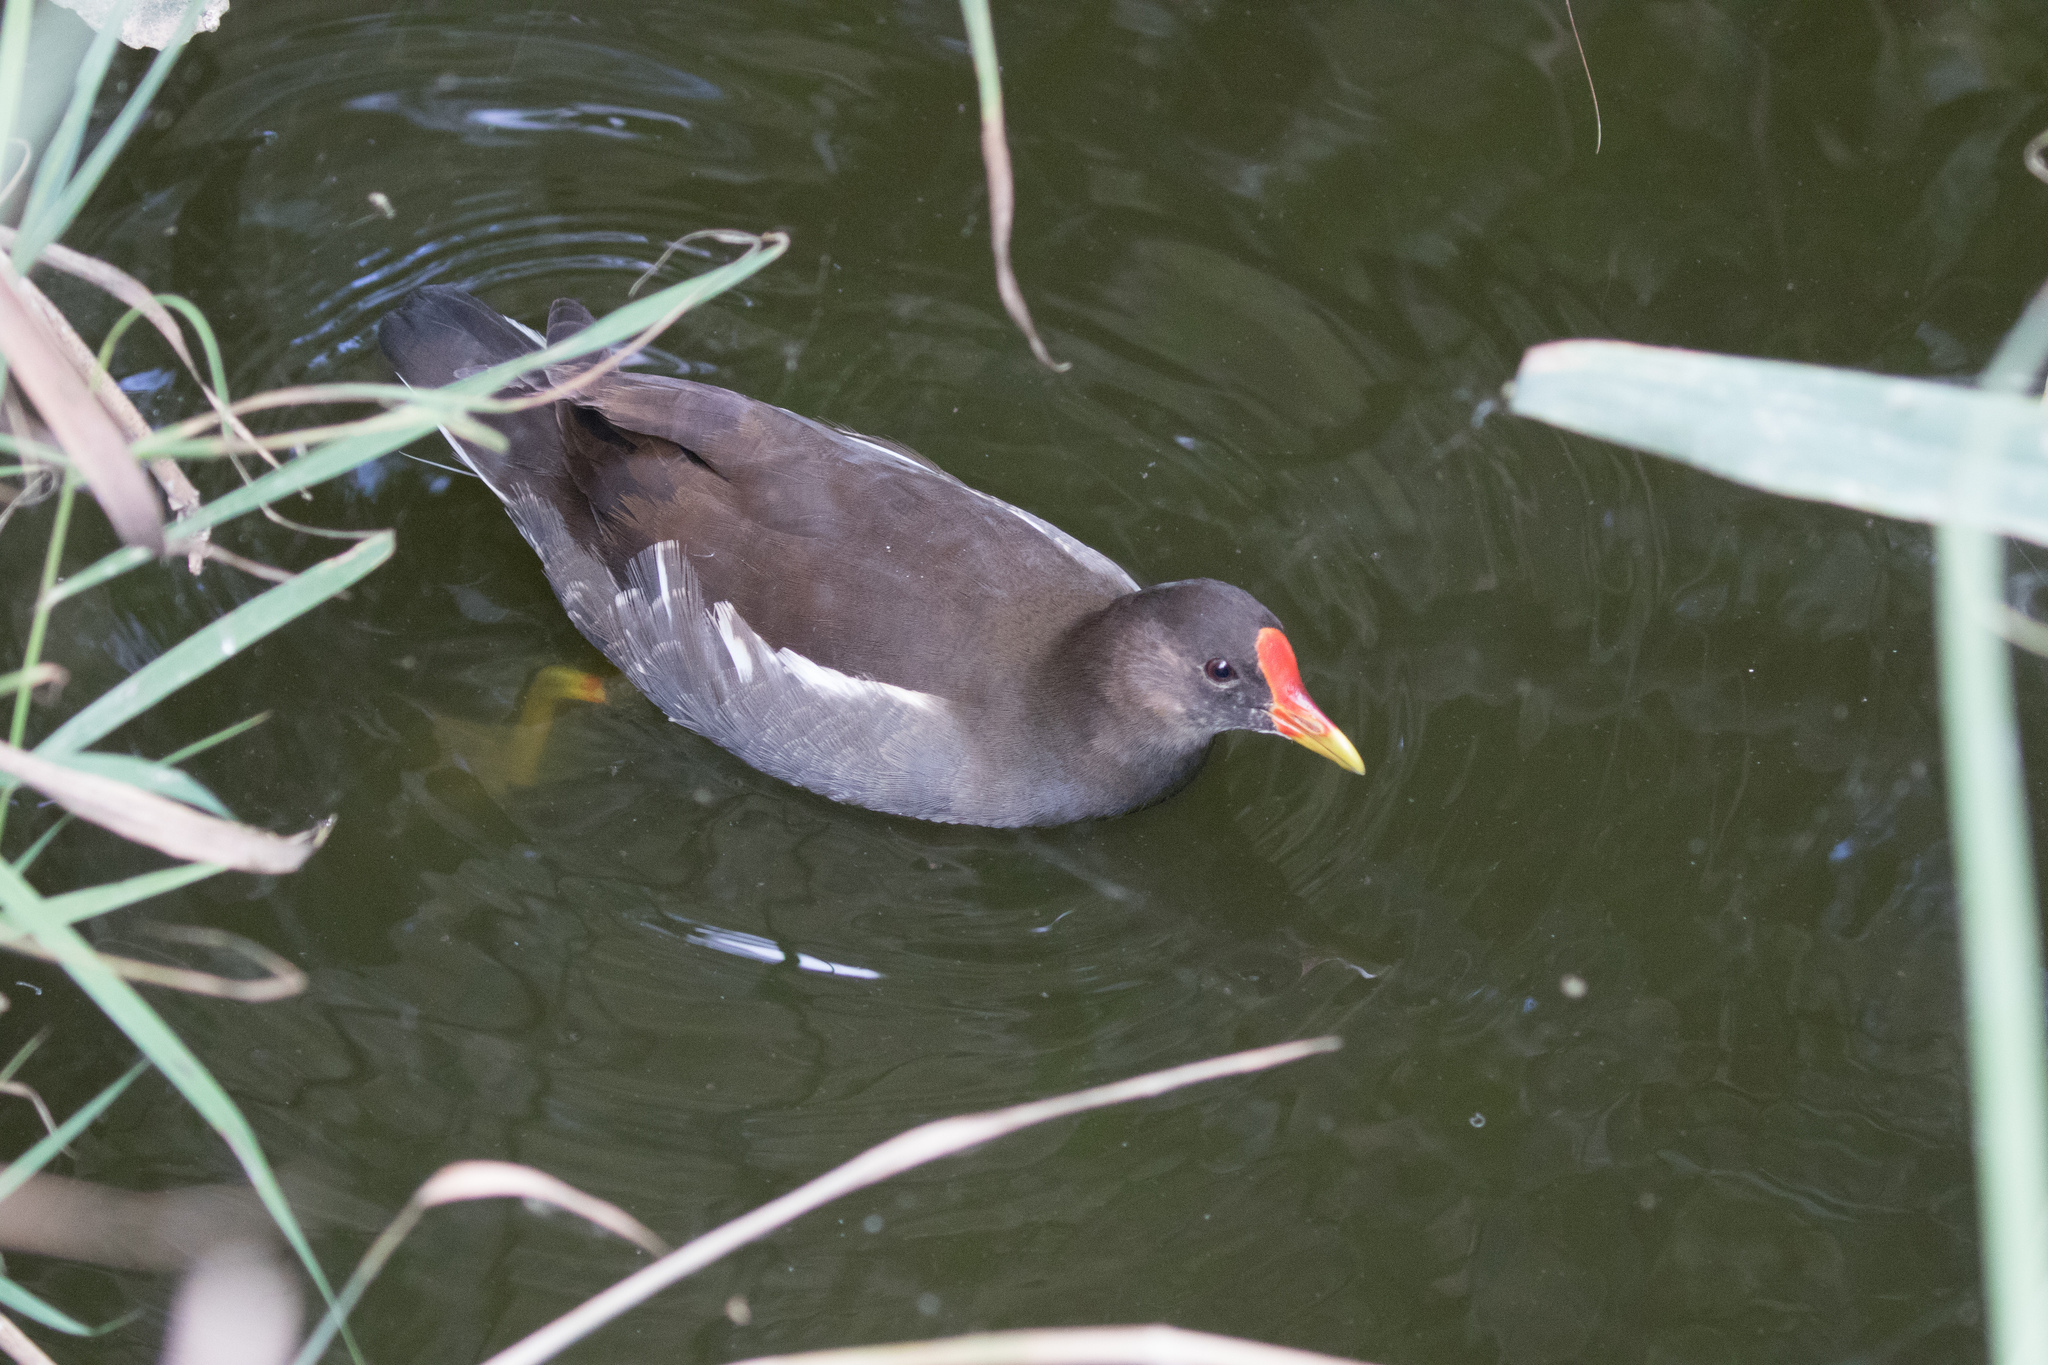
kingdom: Animalia
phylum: Chordata
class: Aves
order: Gruiformes
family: Rallidae
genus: Gallinula
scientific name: Gallinula chloropus
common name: Common moorhen
